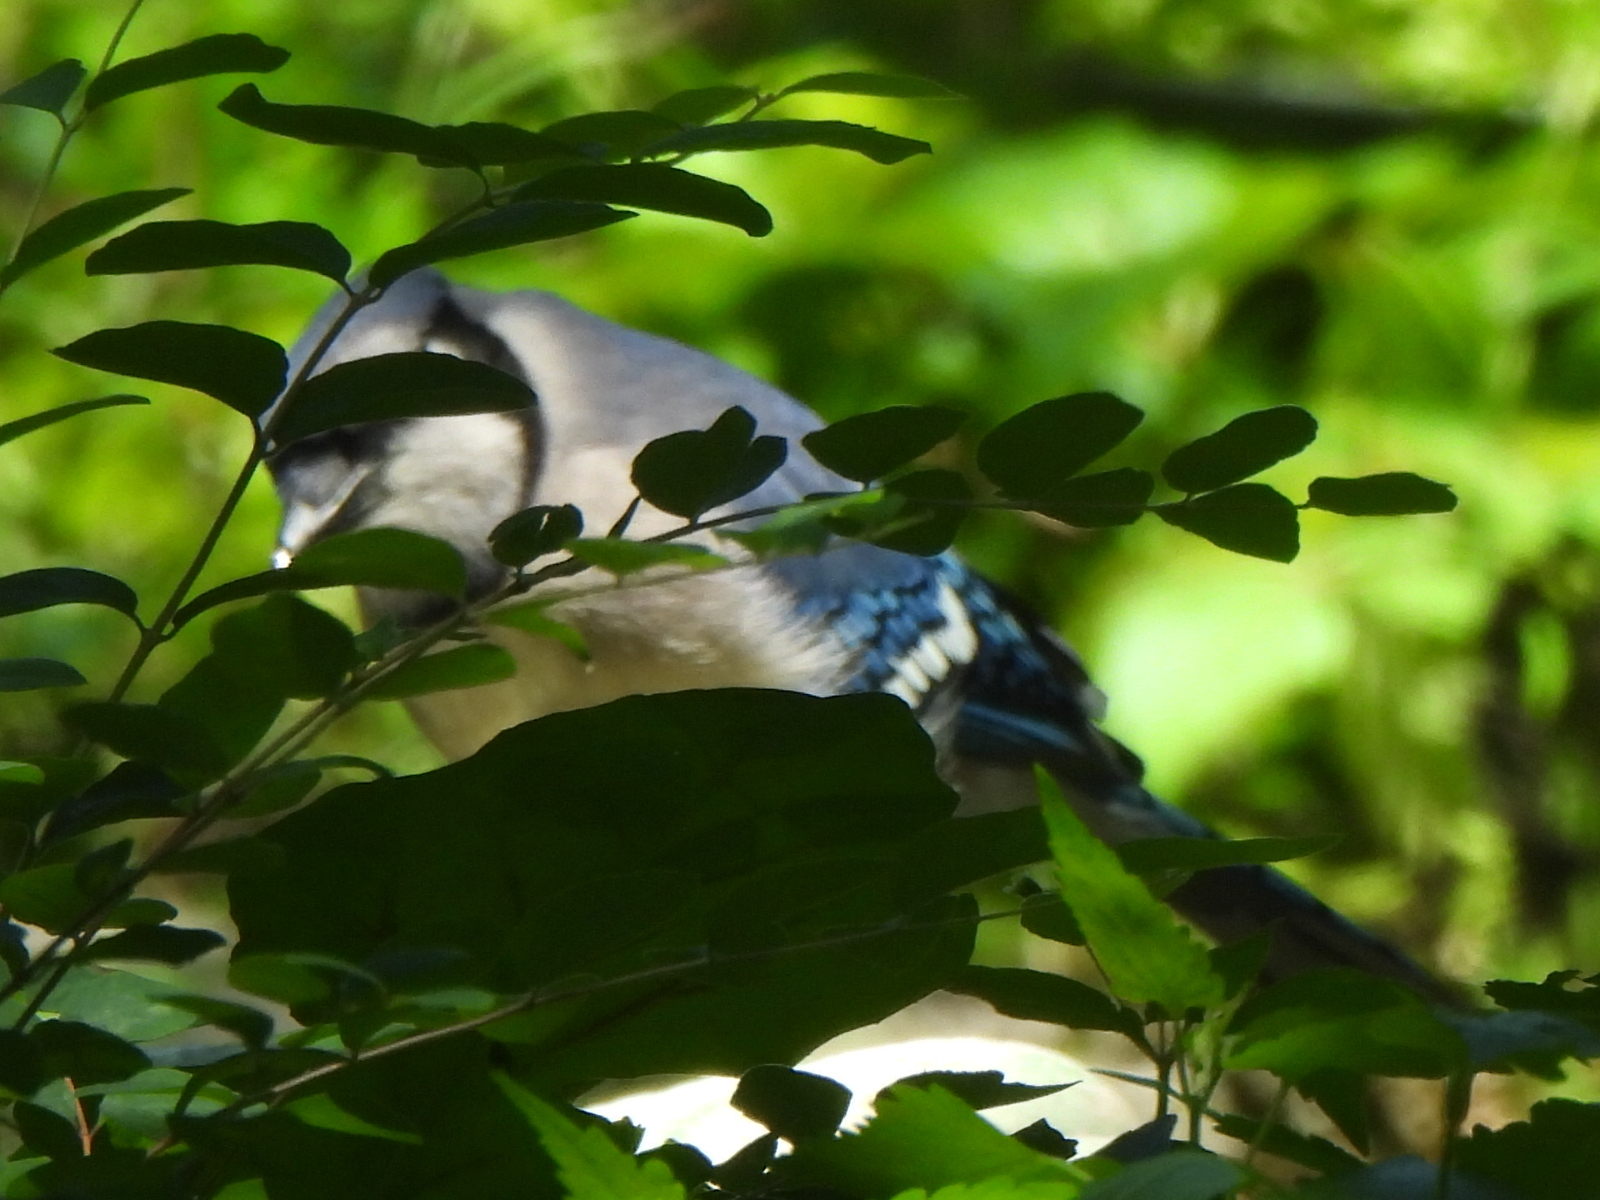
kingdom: Animalia
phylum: Chordata
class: Aves
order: Passeriformes
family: Corvidae
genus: Cyanocitta
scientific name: Cyanocitta cristata
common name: Blue jay
